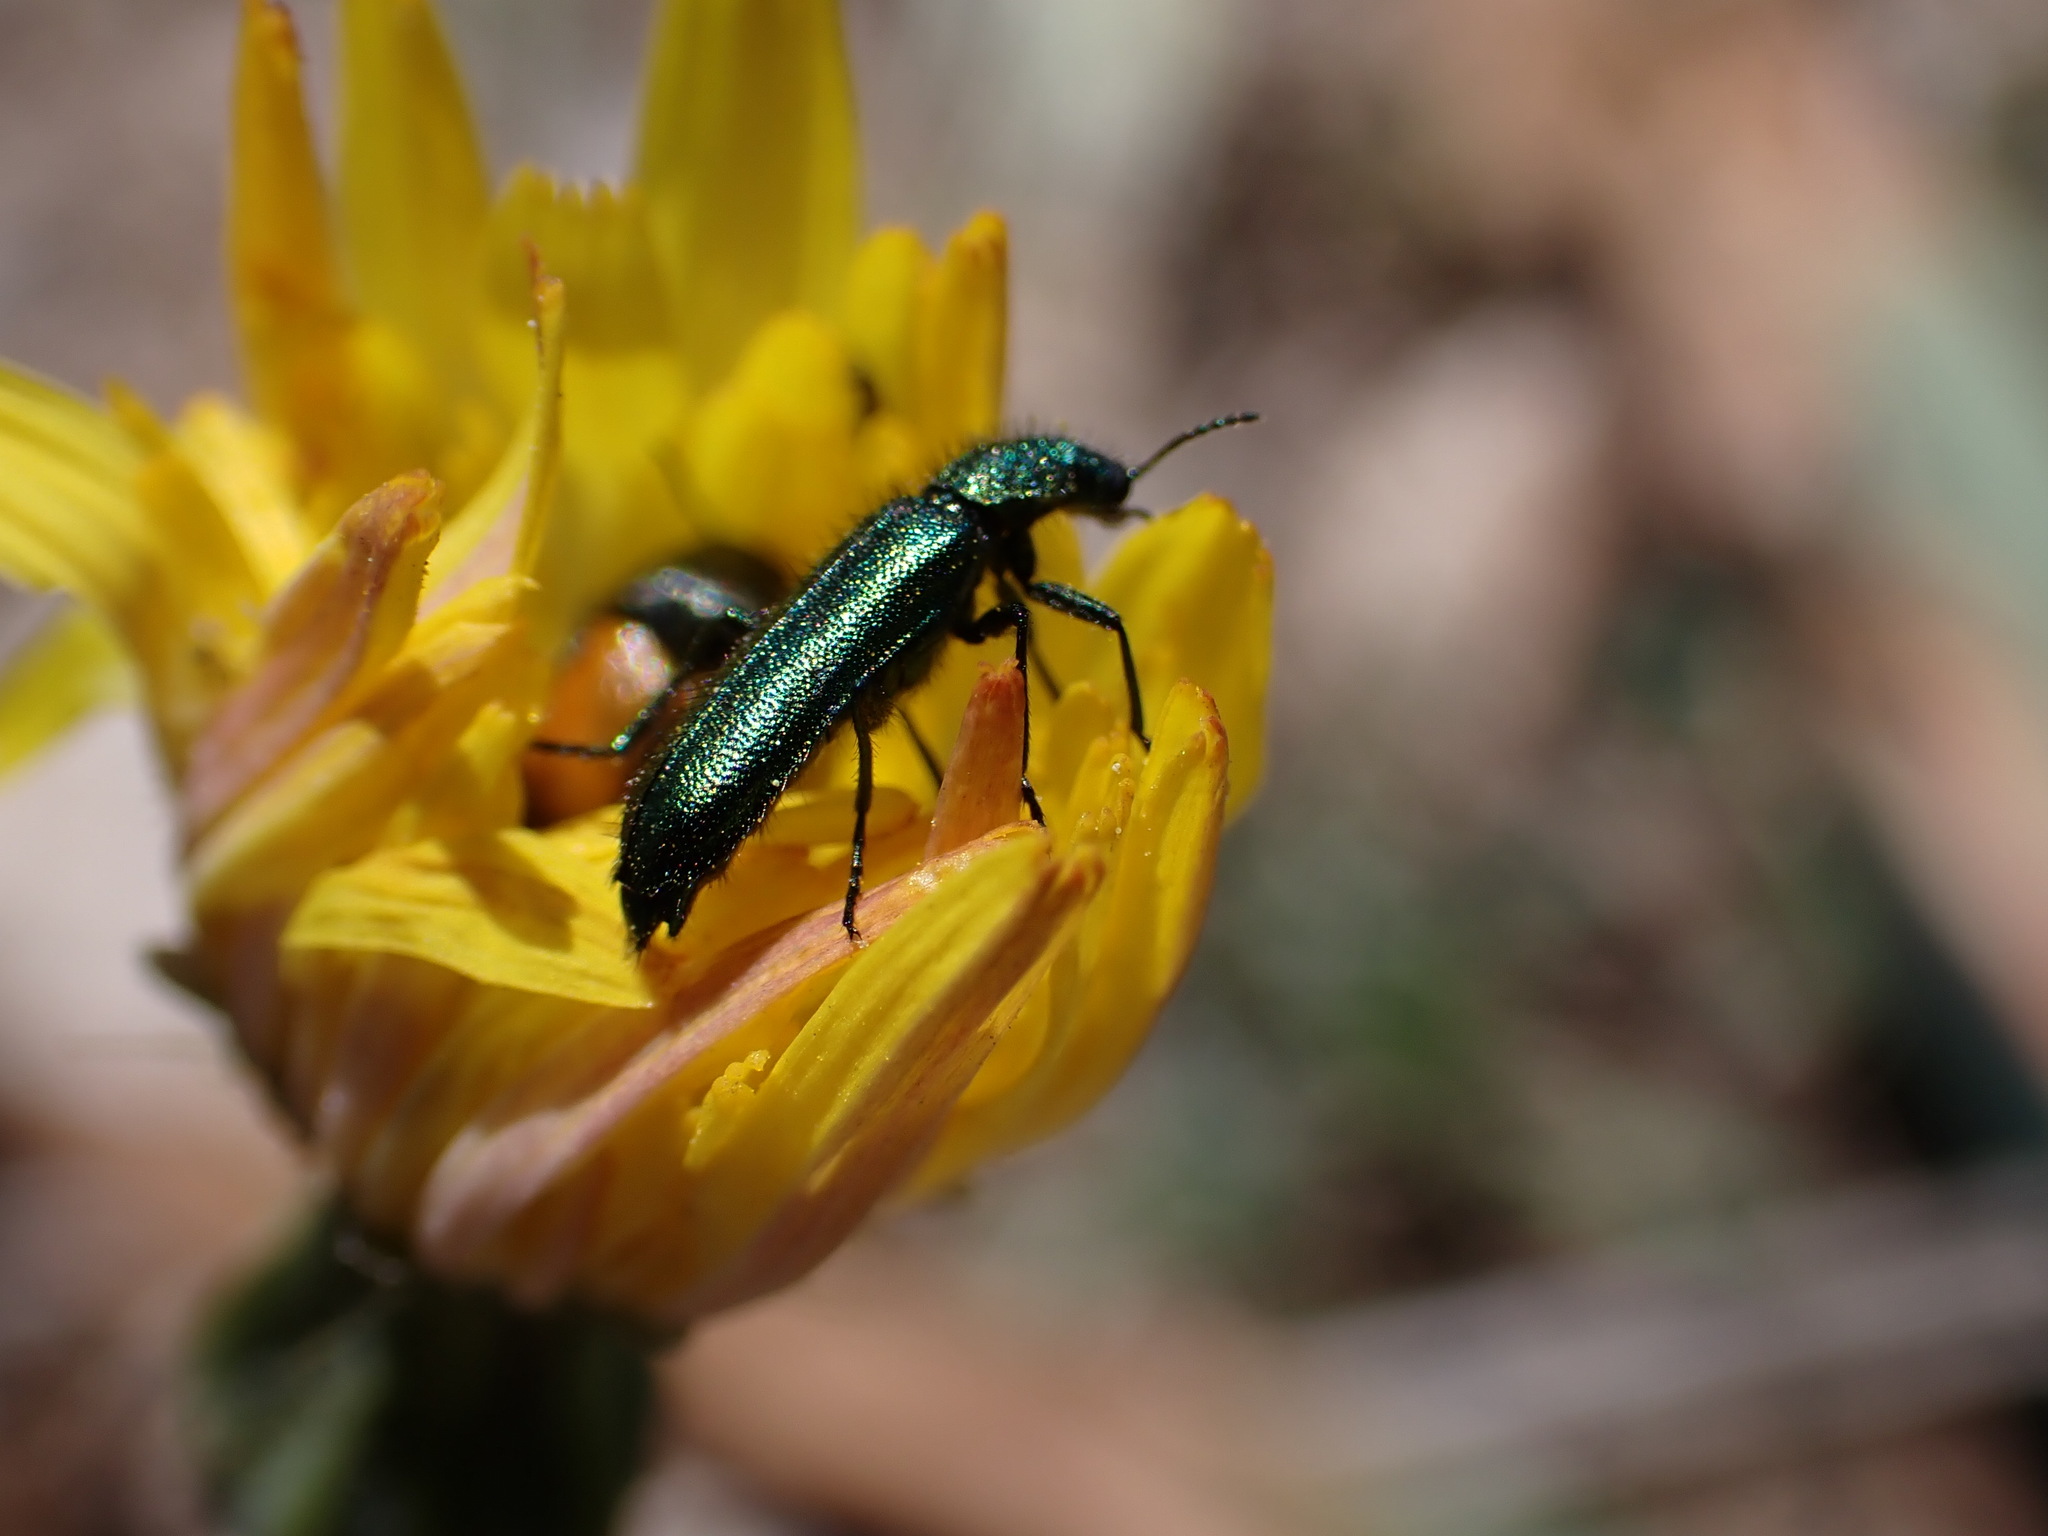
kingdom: Animalia
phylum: Arthropoda
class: Insecta
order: Coleoptera
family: Dasytidae
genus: Psilothrix
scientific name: Psilothrix viridicoerulea
